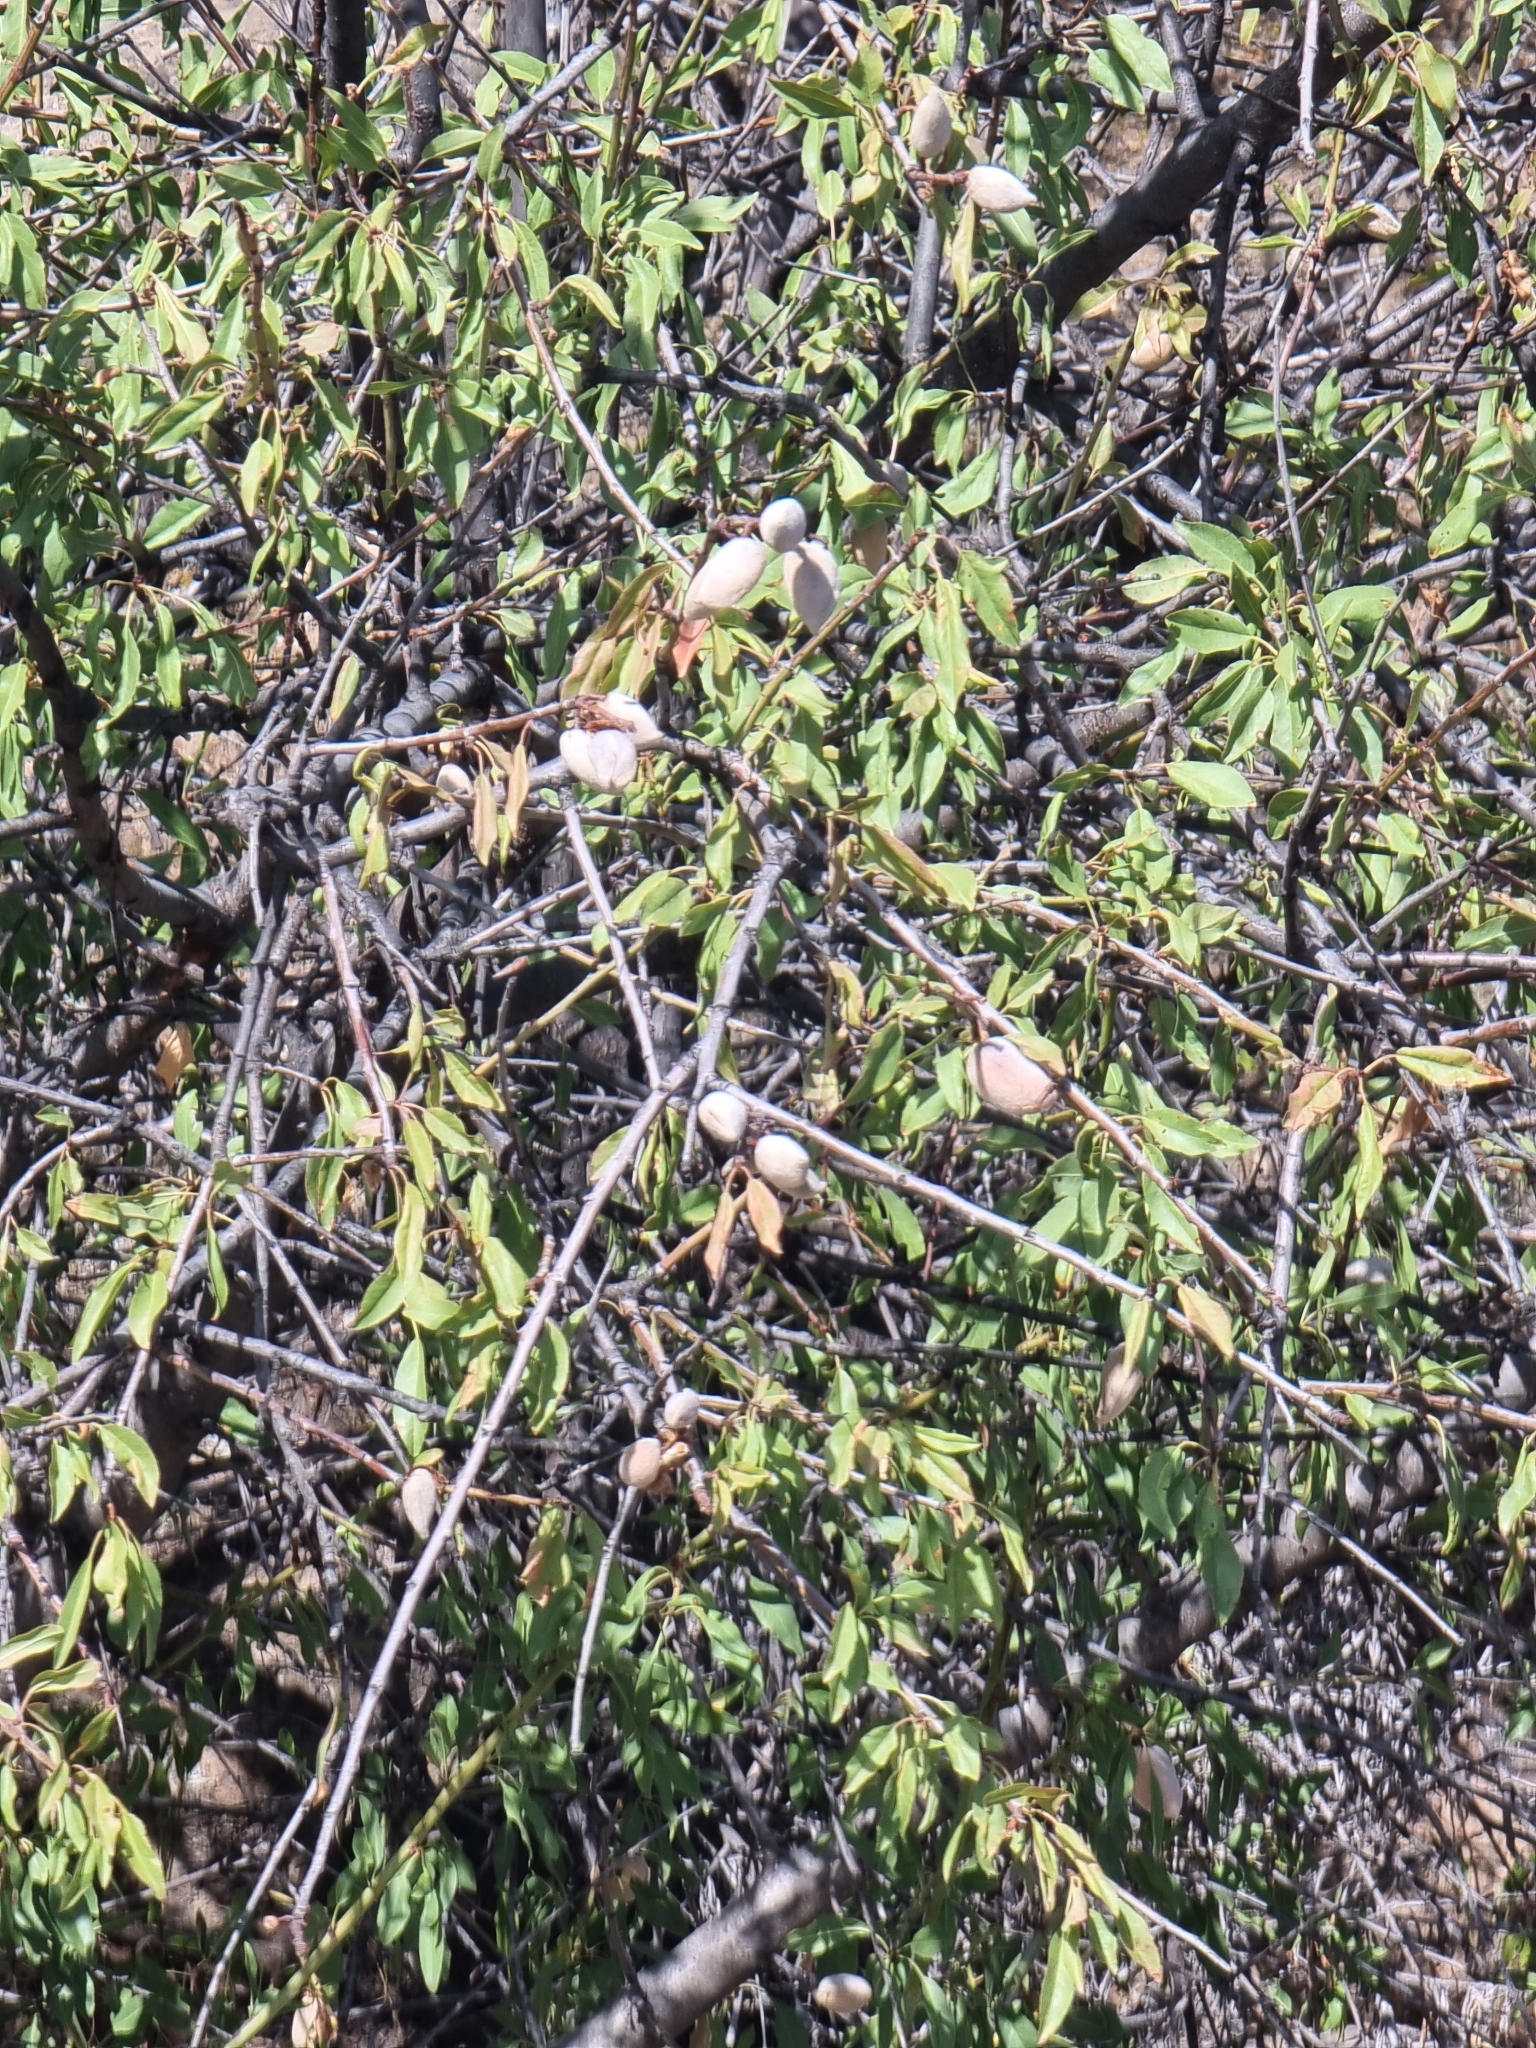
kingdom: Plantae
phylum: Tracheophyta
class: Magnoliopsida
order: Rosales
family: Rosaceae
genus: Prunus
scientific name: Prunus amygdalus
